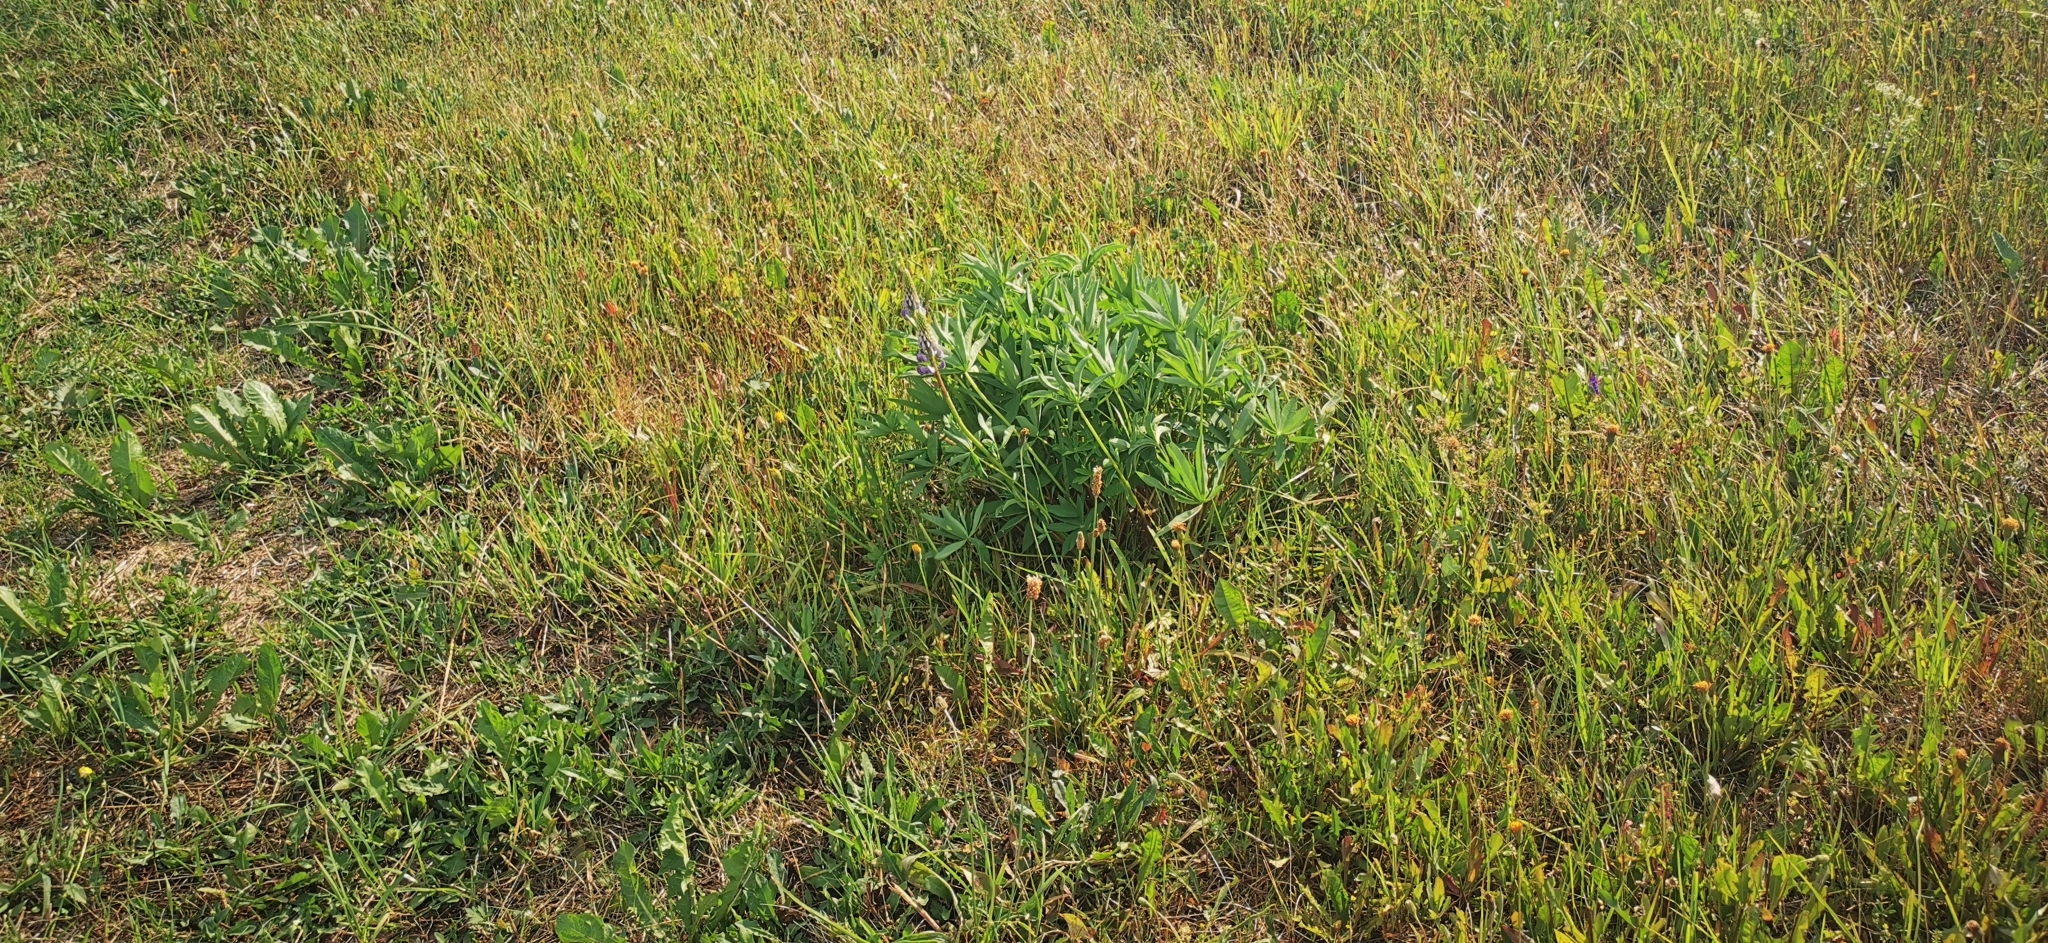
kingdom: Plantae
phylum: Tracheophyta
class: Magnoliopsida
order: Fabales
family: Fabaceae
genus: Lupinus
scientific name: Lupinus polyphyllus
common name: Garden lupin
